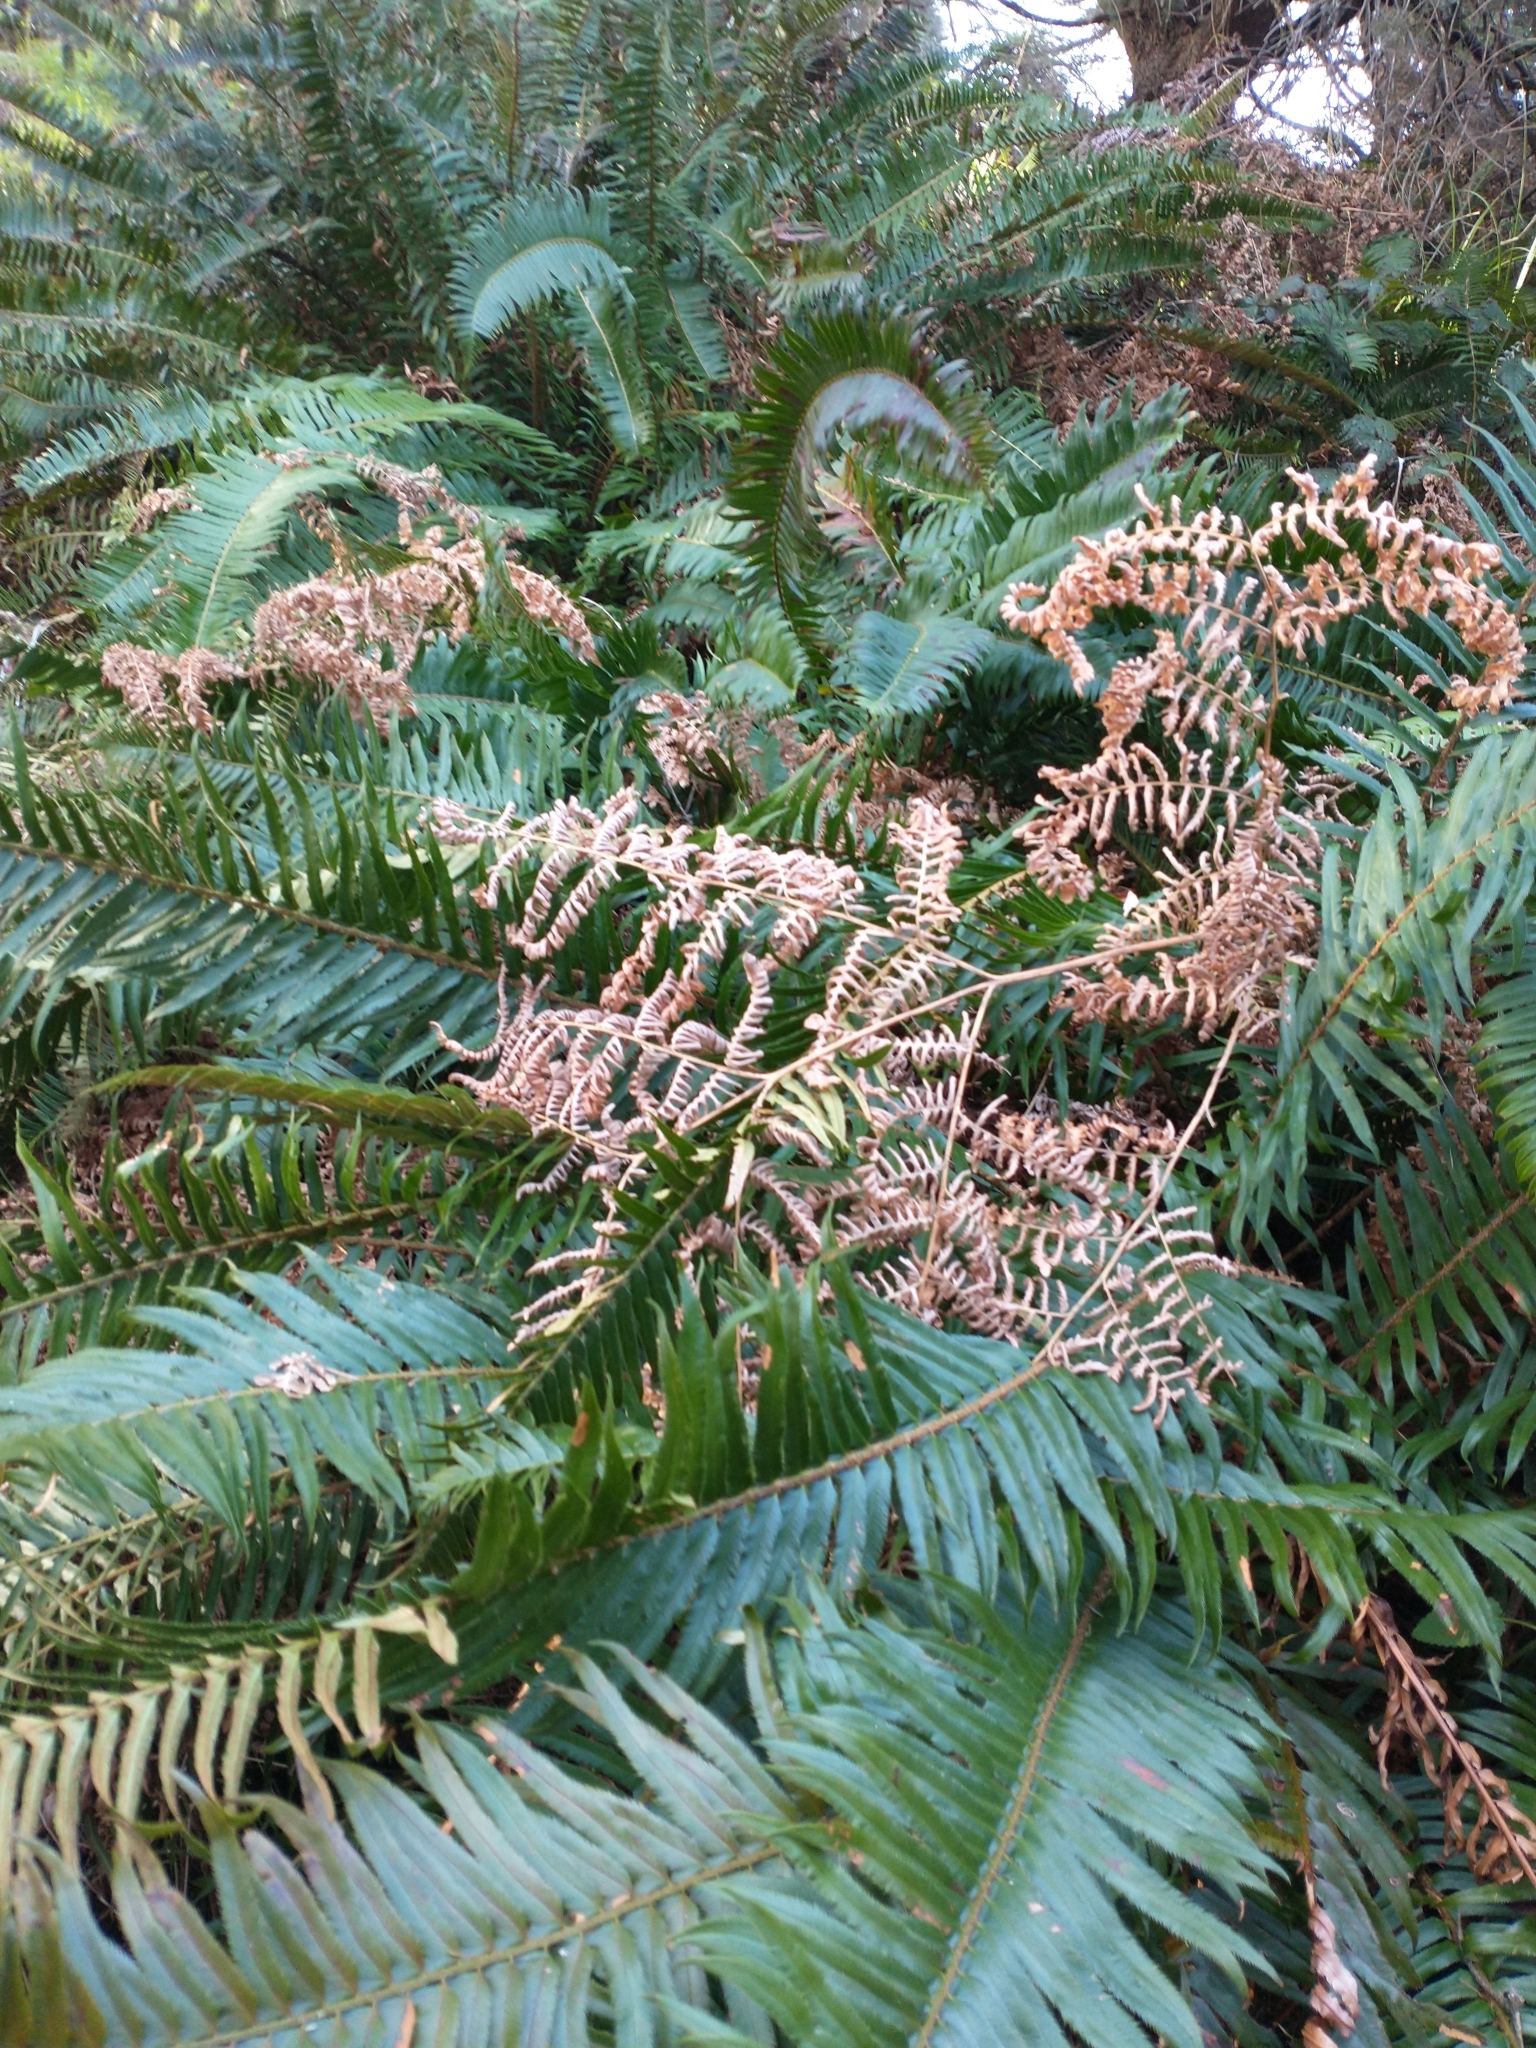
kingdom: Plantae
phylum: Tracheophyta
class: Polypodiopsida
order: Polypodiales
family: Dennstaedtiaceae
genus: Pteridium
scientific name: Pteridium aquilinum
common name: Bracken
